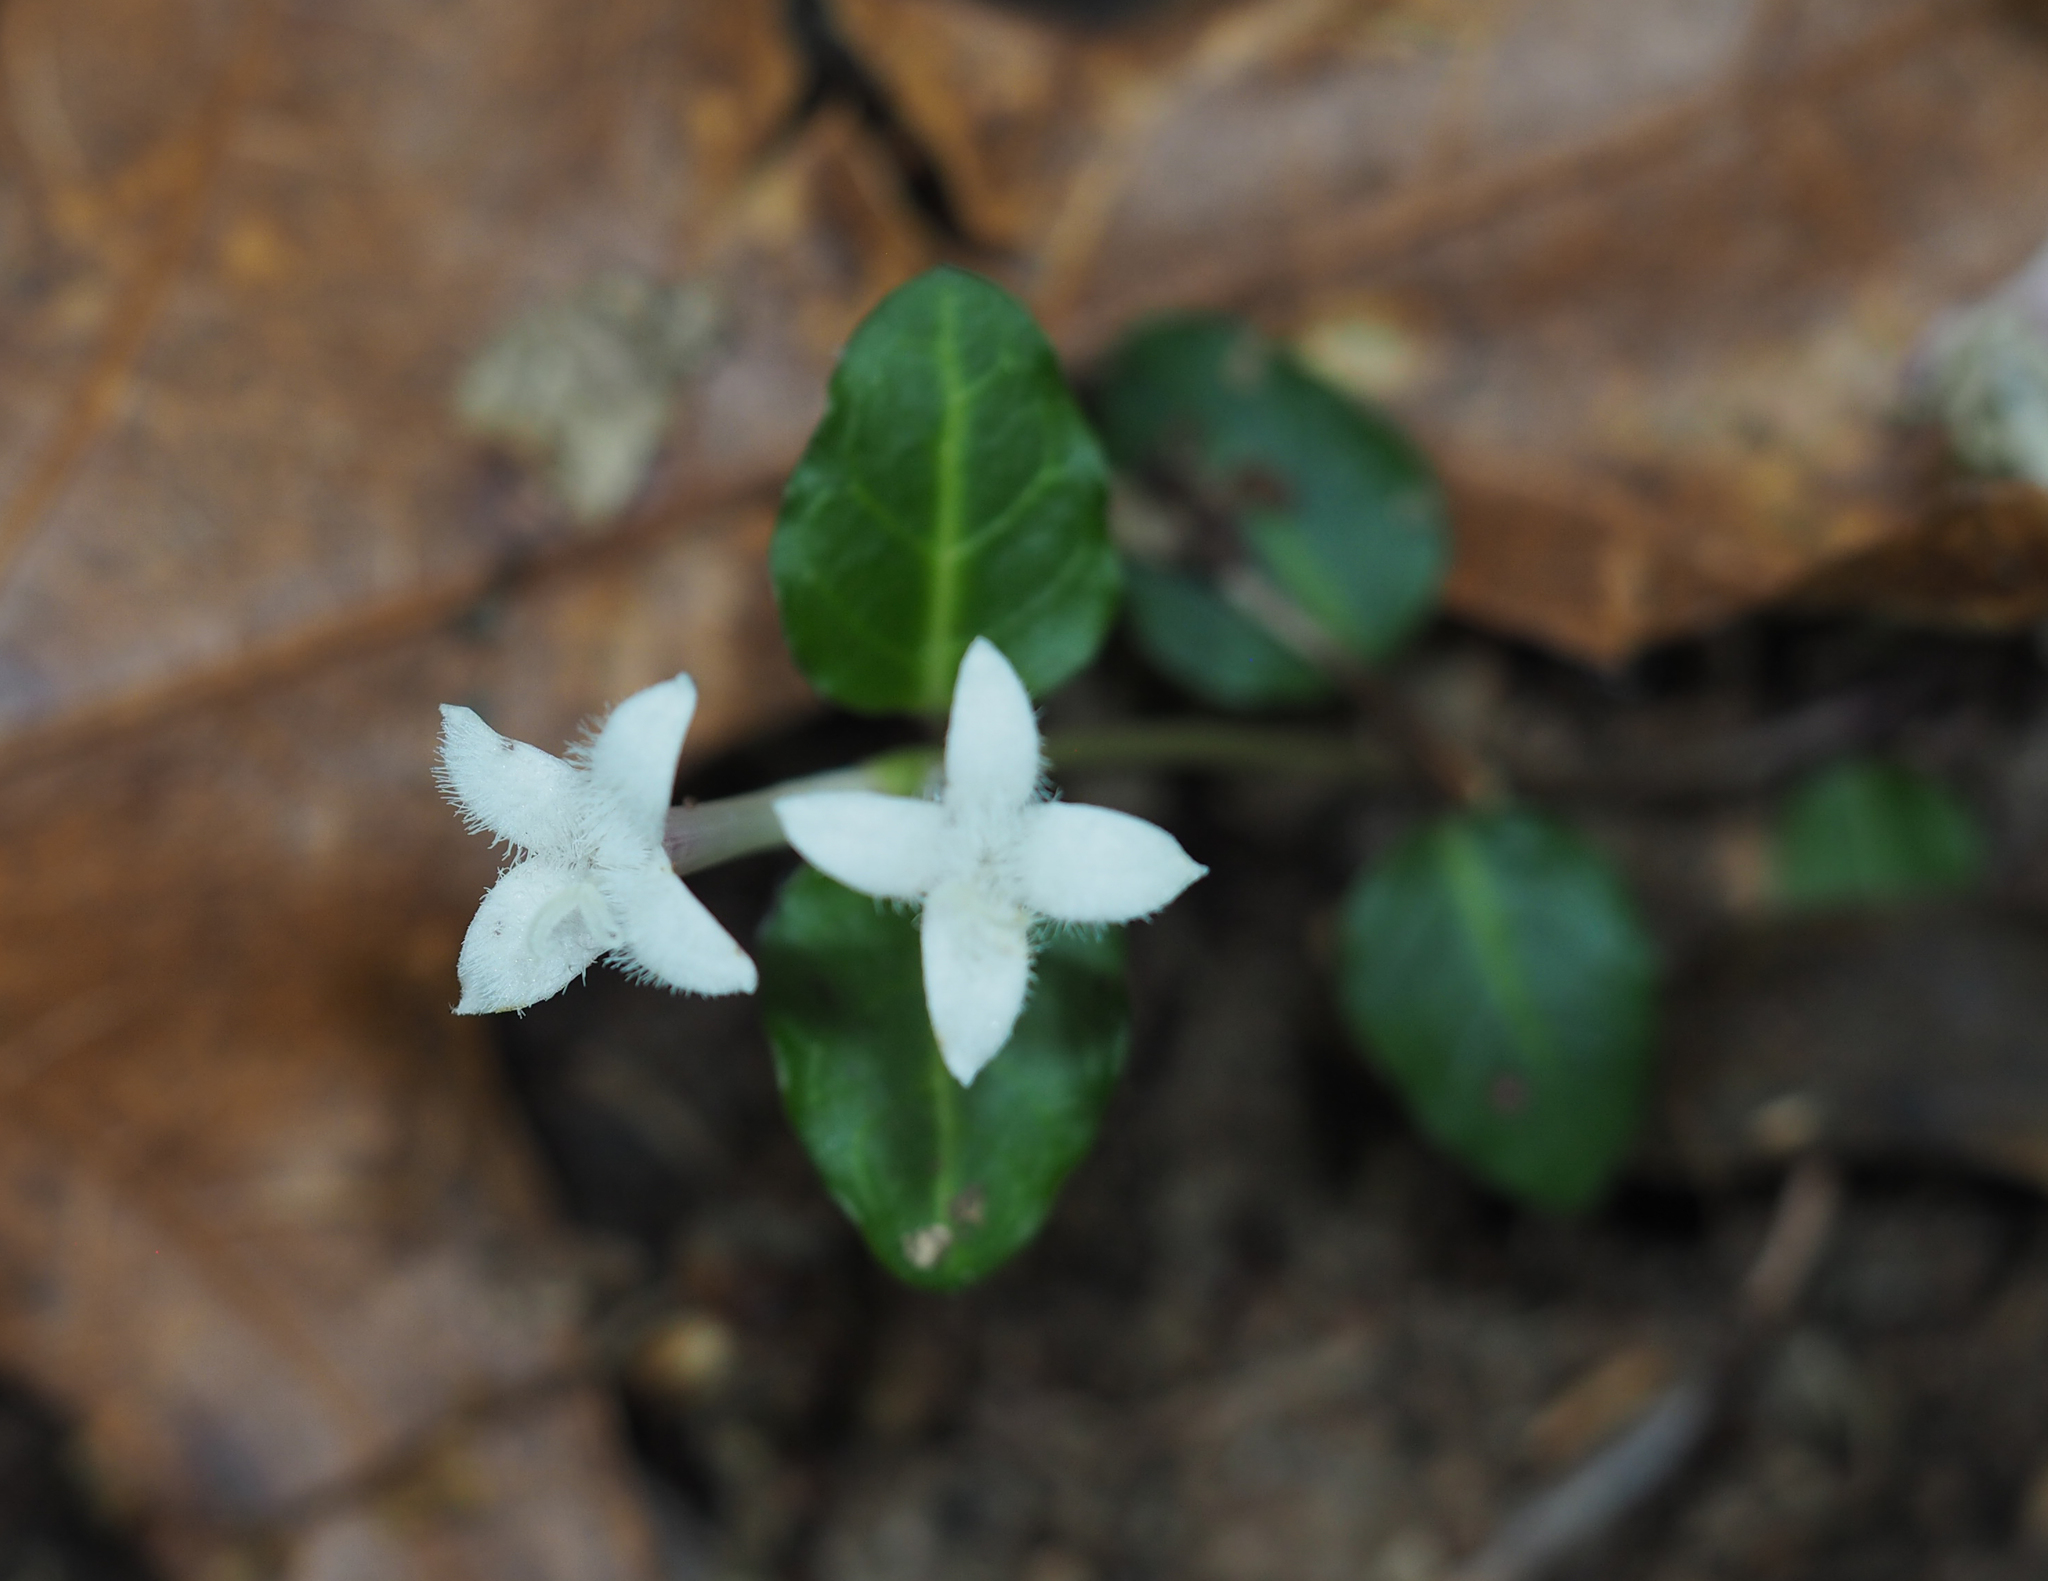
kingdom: Plantae
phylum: Tracheophyta
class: Magnoliopsida
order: Gentianales
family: Rubiaceae
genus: Mitchella
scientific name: Mitchella repens
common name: Partridge-berry
